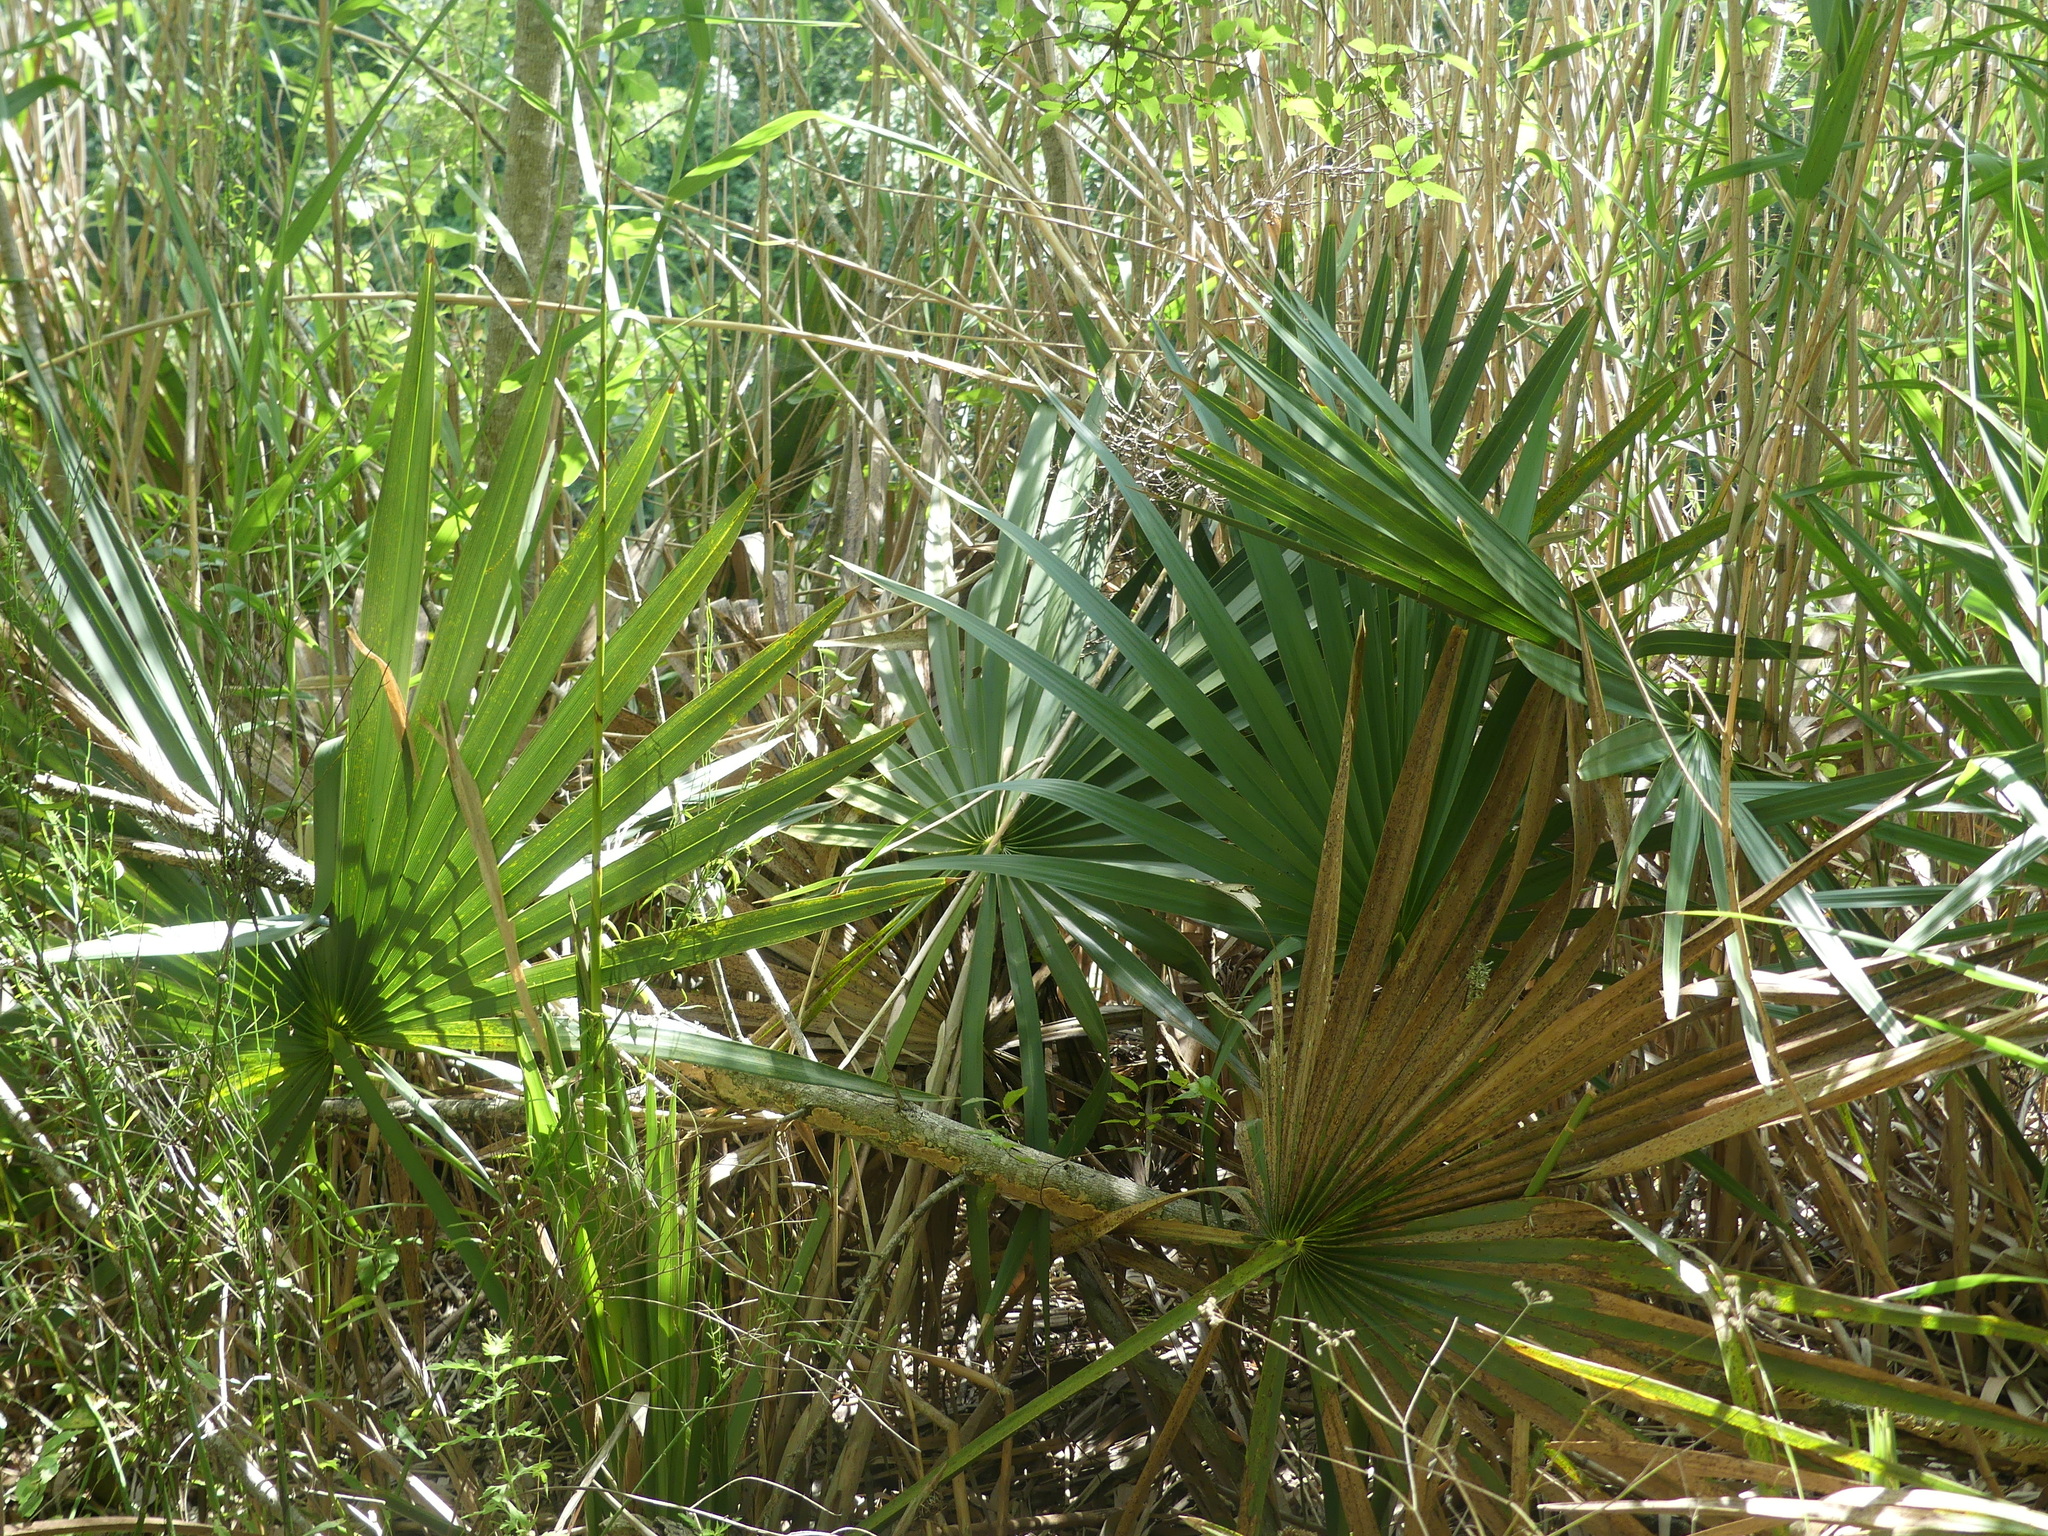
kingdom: Plantae
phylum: Tracheophyta
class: Liliopsida
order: Arecales
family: Arecaceae
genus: Sabal
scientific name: Sabal minor
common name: Dwarf palmetto
